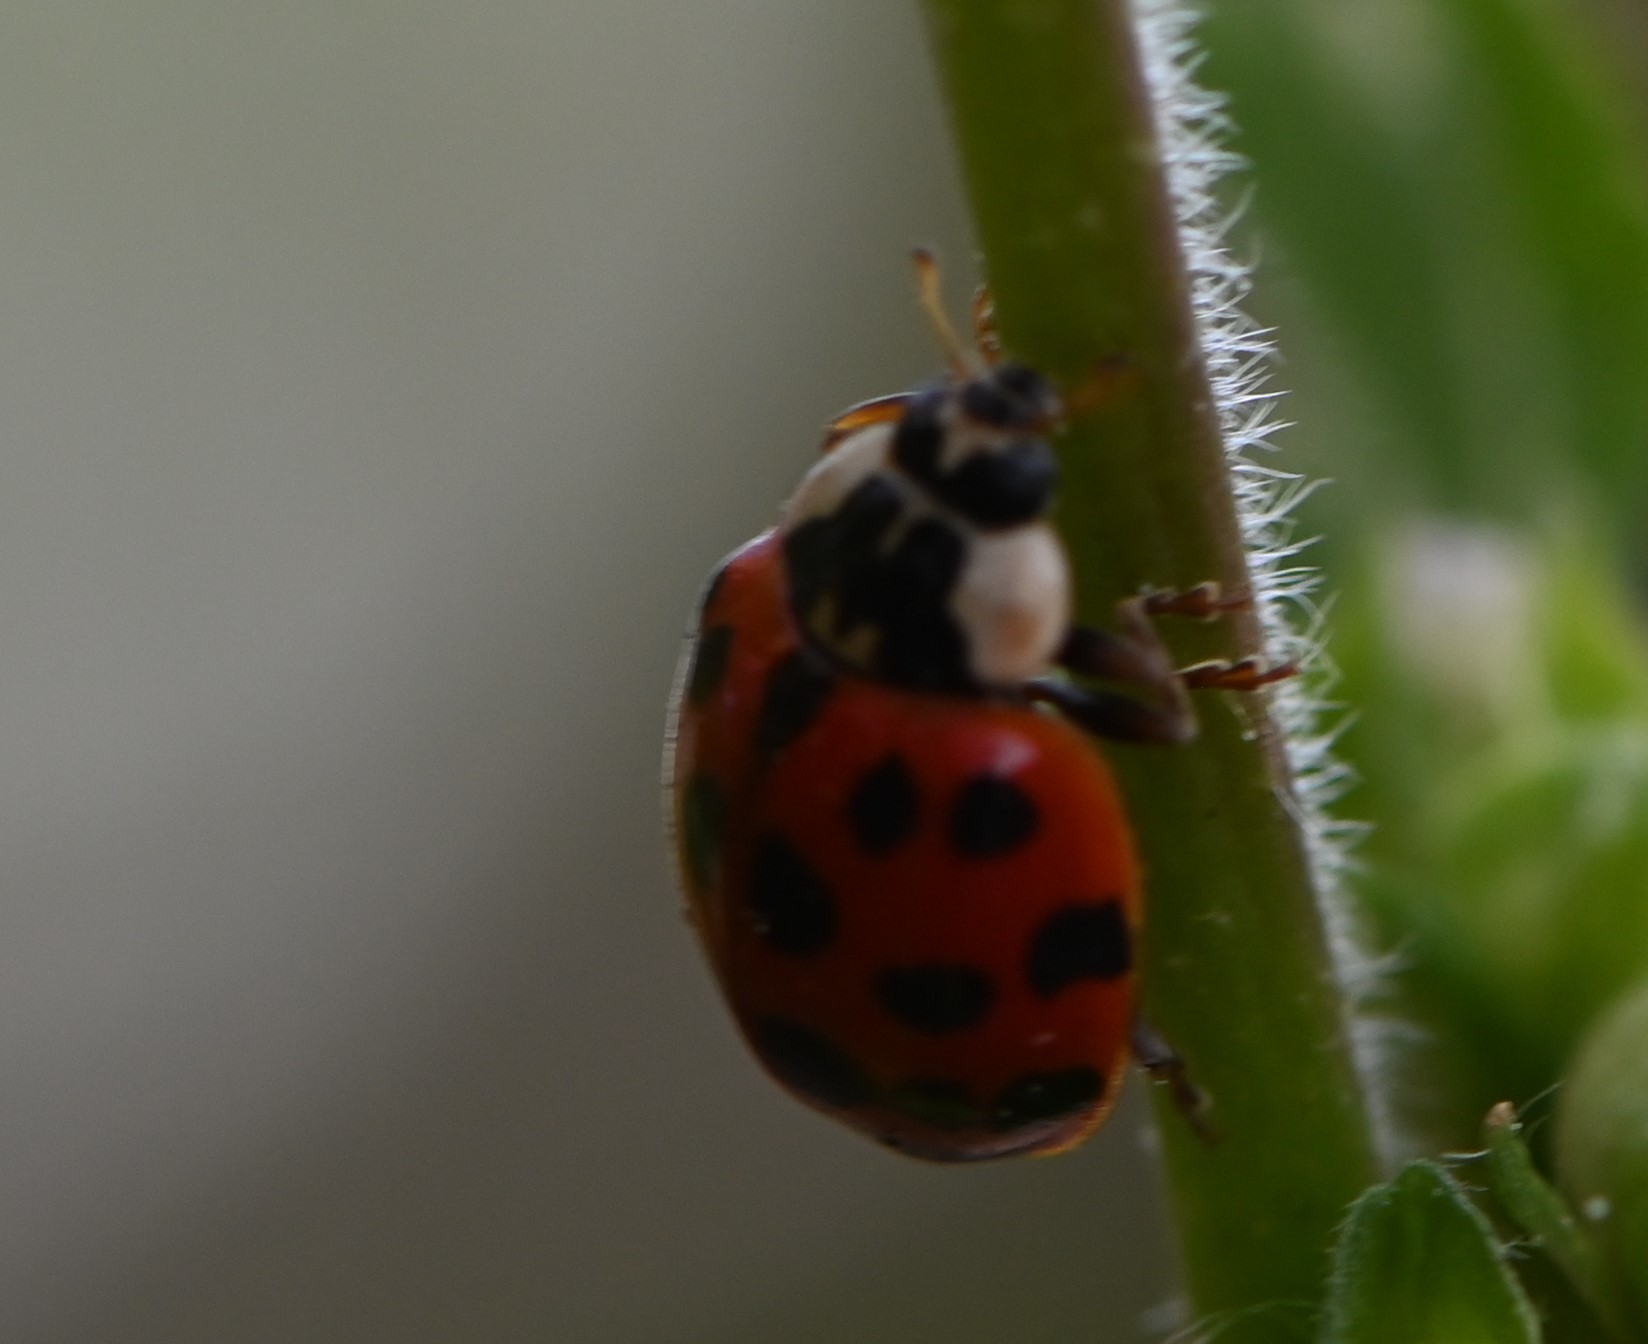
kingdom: Animalia
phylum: Arthropoda
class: Insecta
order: Coleoptera
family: Coccinellidae
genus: Harmonia
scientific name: Harmonia axyridis
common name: Harlequin ladybird
